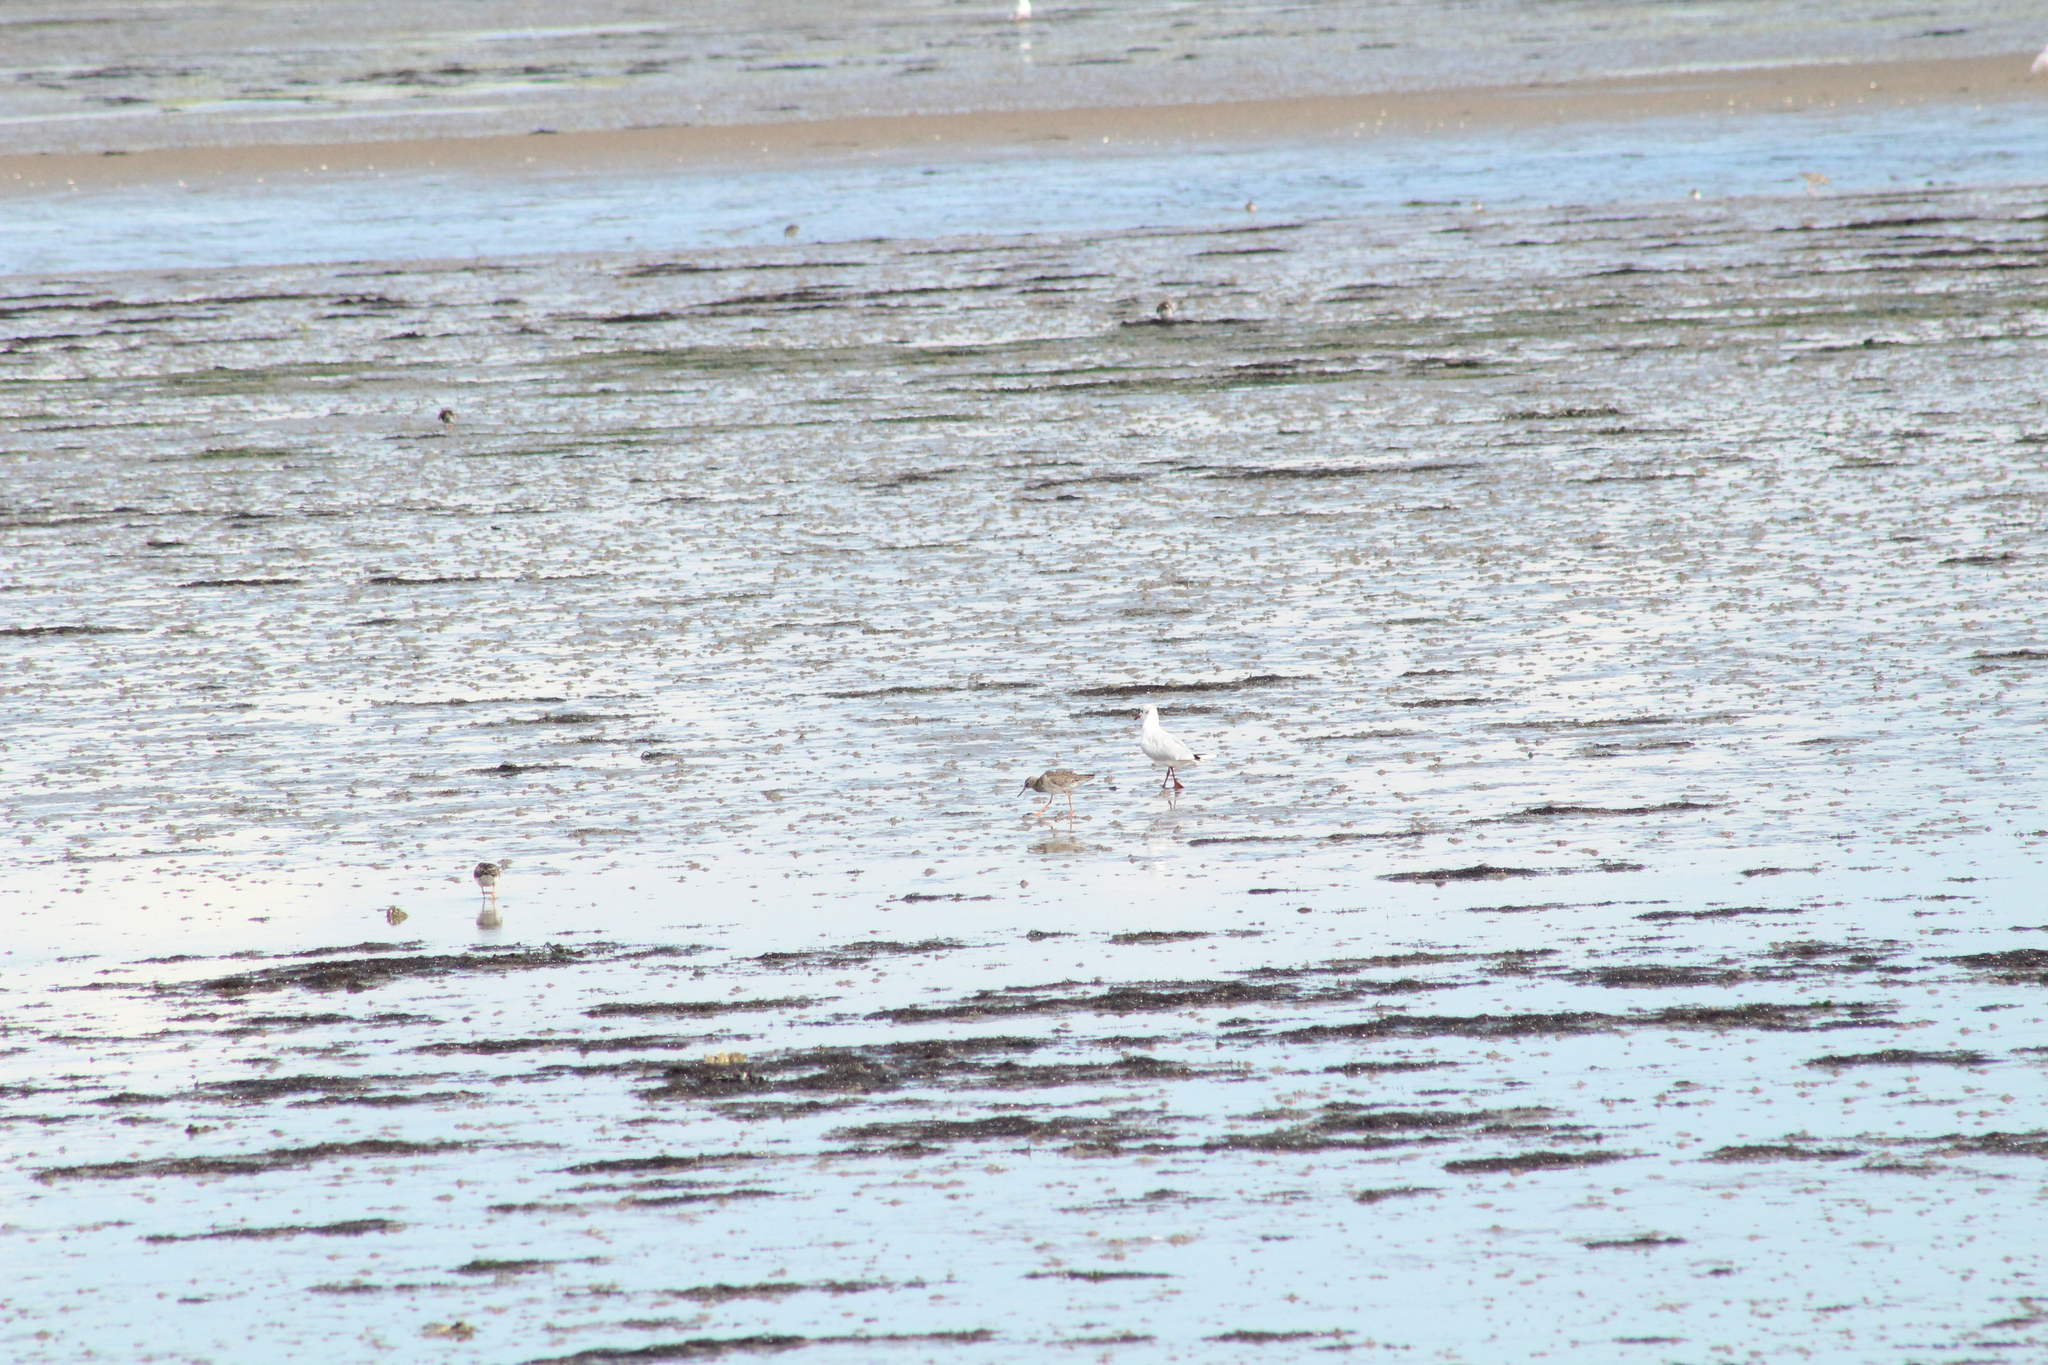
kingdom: Animalia
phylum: Chordata
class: Aves
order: Charadriiformes
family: Scolopacidae
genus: Arenaria
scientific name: Arenaria interpres
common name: Ruddy turnstone
